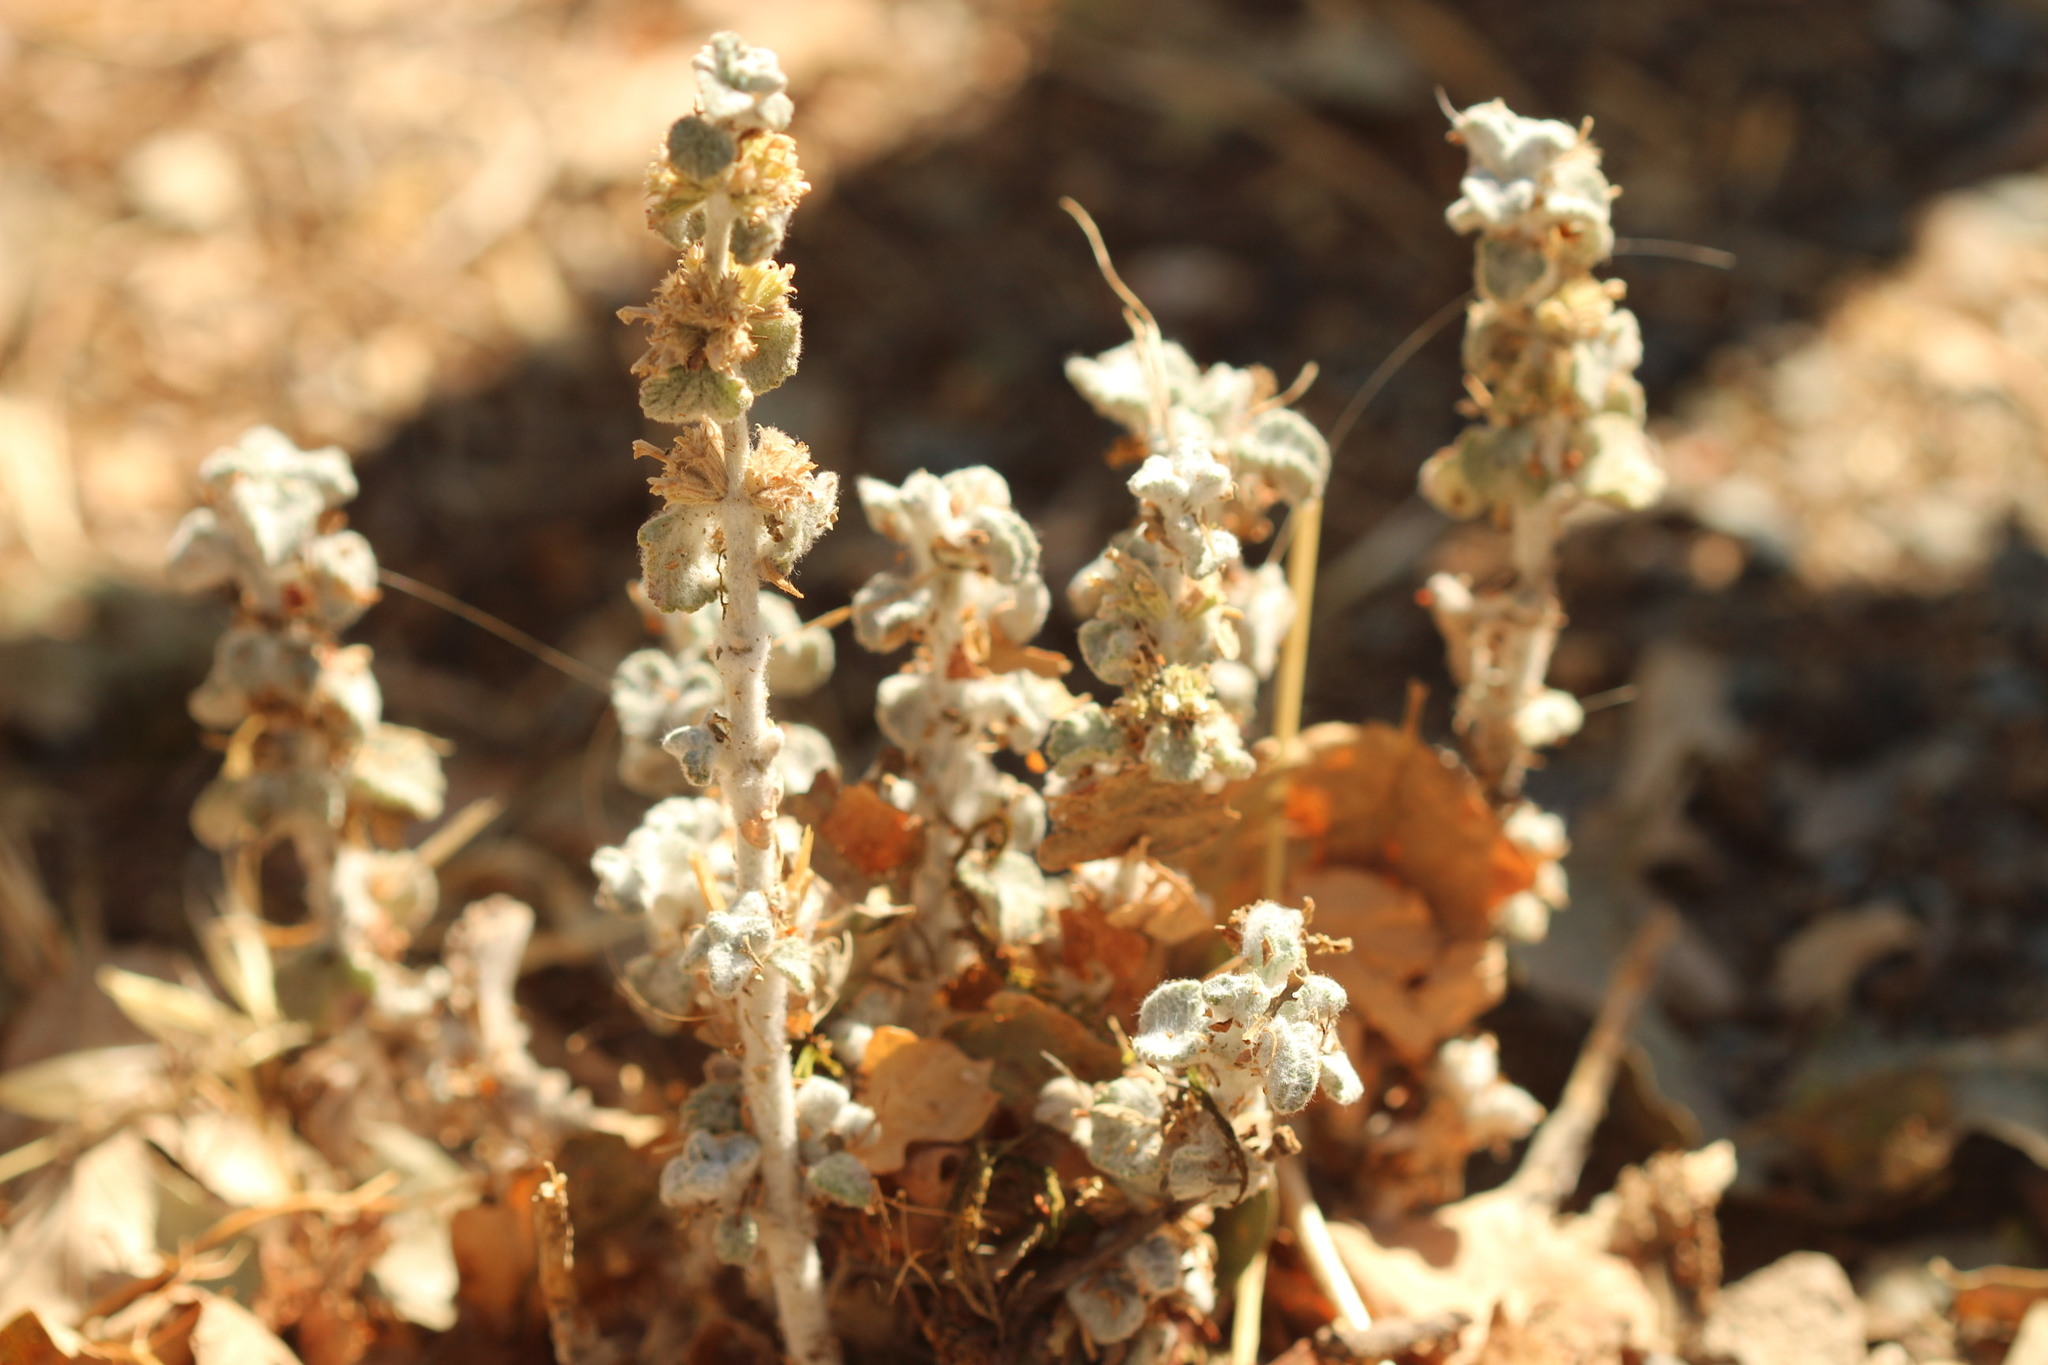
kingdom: Plantae
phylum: Tracheophyta
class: Magnoliopsida
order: Lamiales
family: Lamiaceae
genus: Marrubium
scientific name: Marrubium vulgare
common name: Horehound
